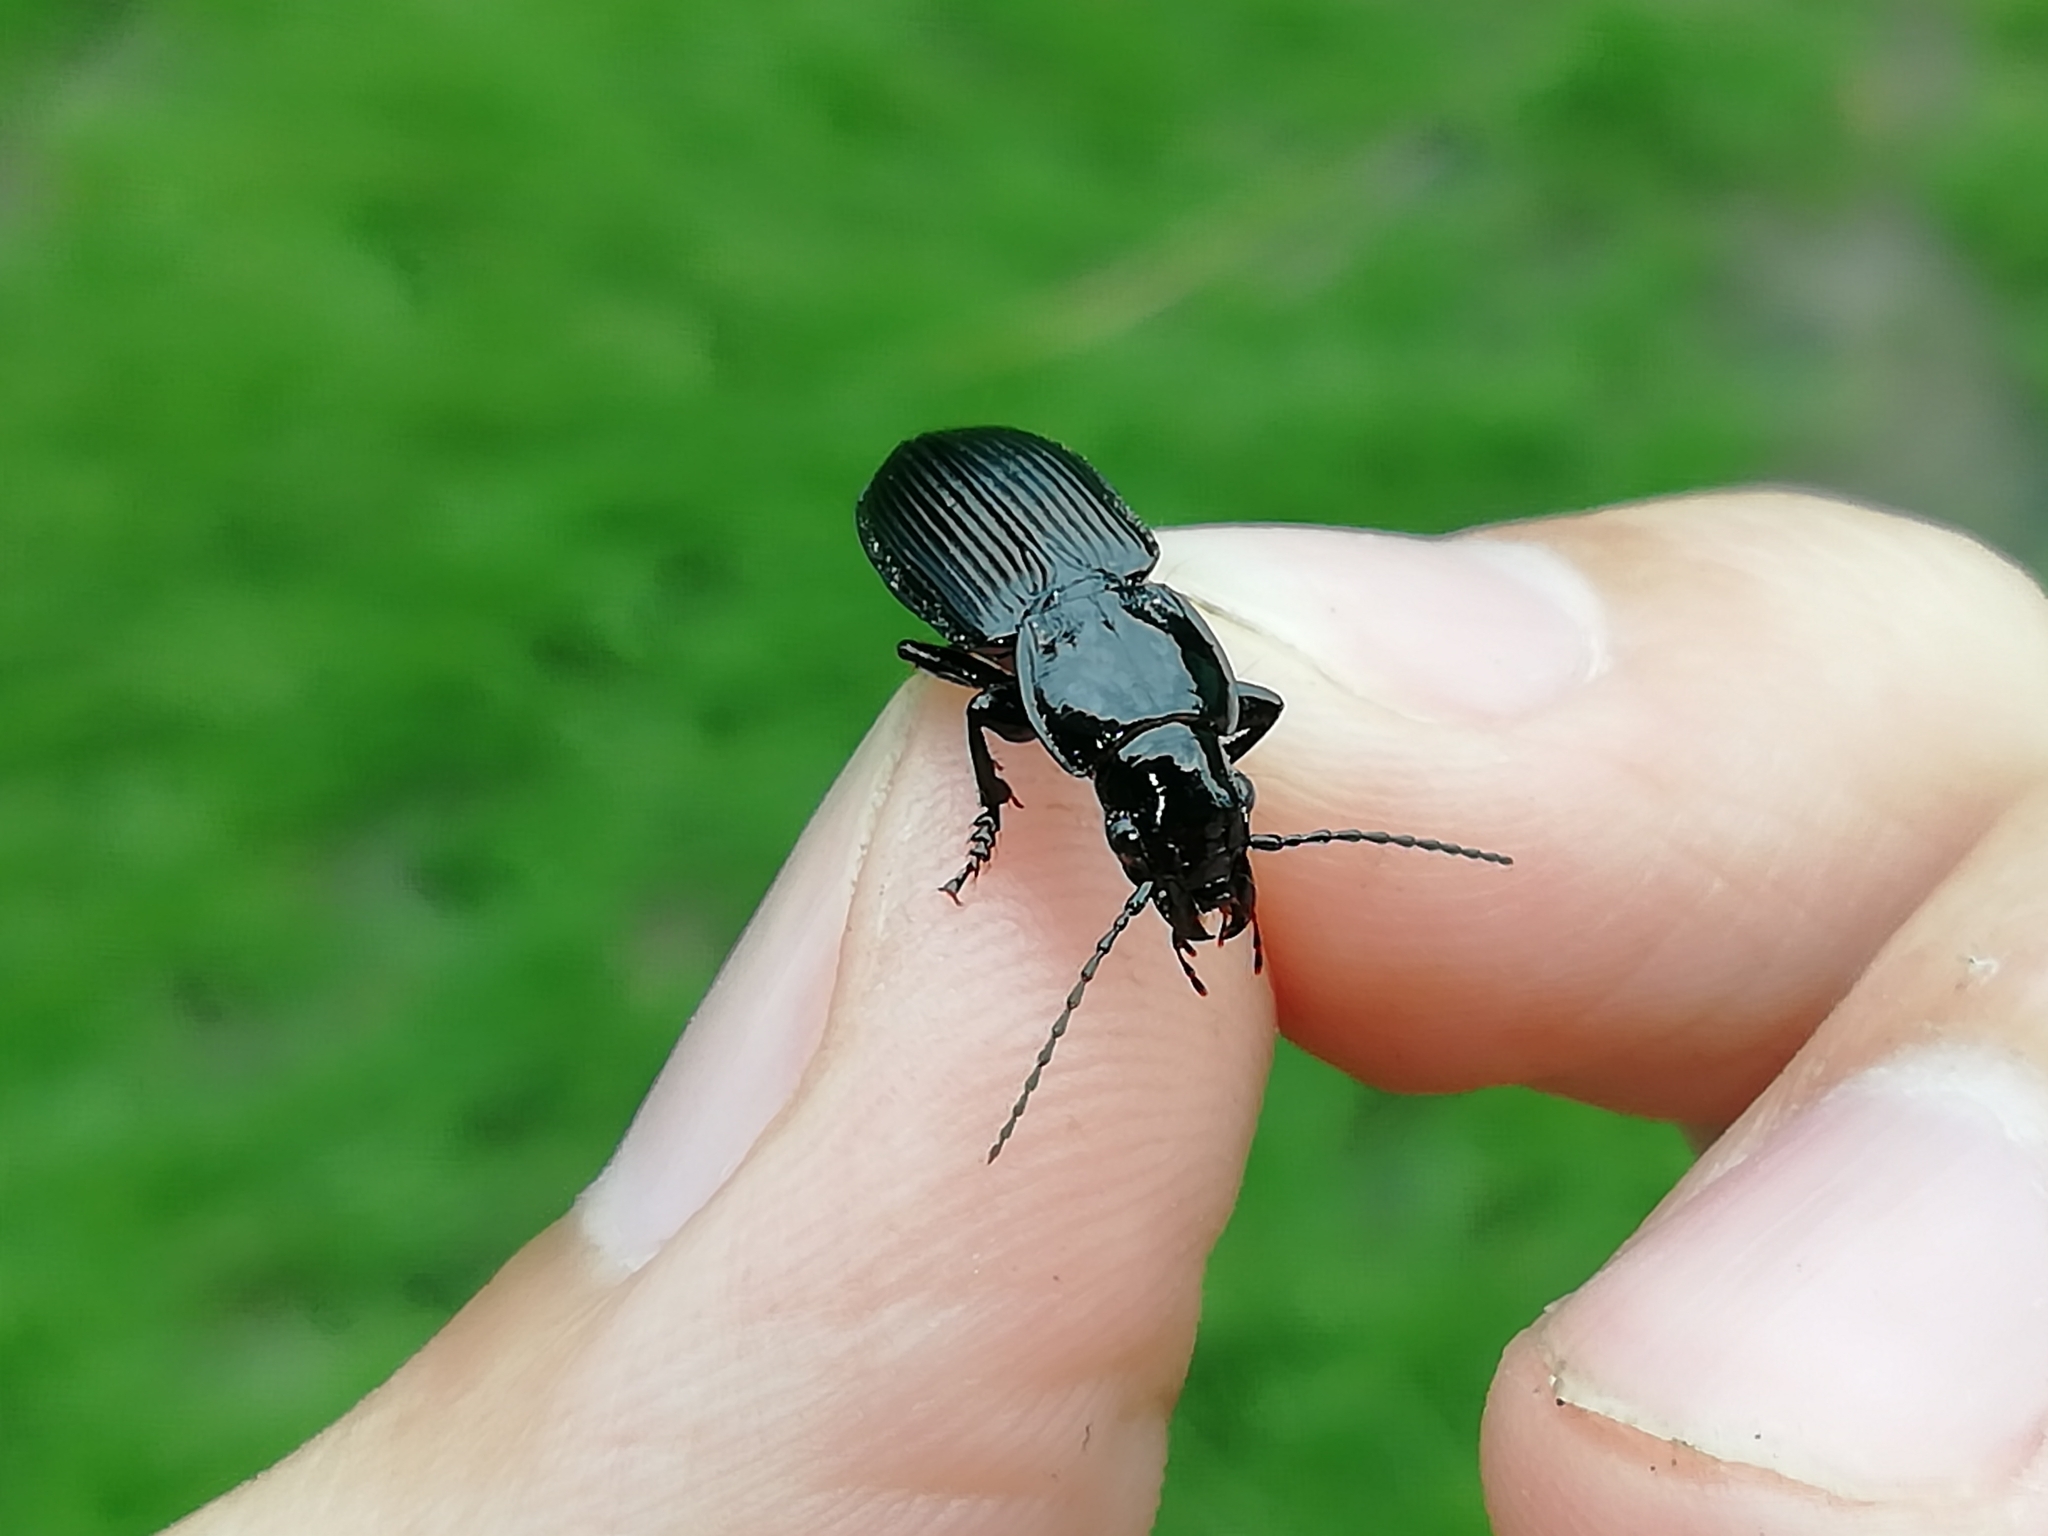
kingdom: Animalia
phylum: Arthropoda
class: Insecta
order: Coleoptera
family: Carabidae
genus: Pterostichus
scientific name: Pterostichus niger
